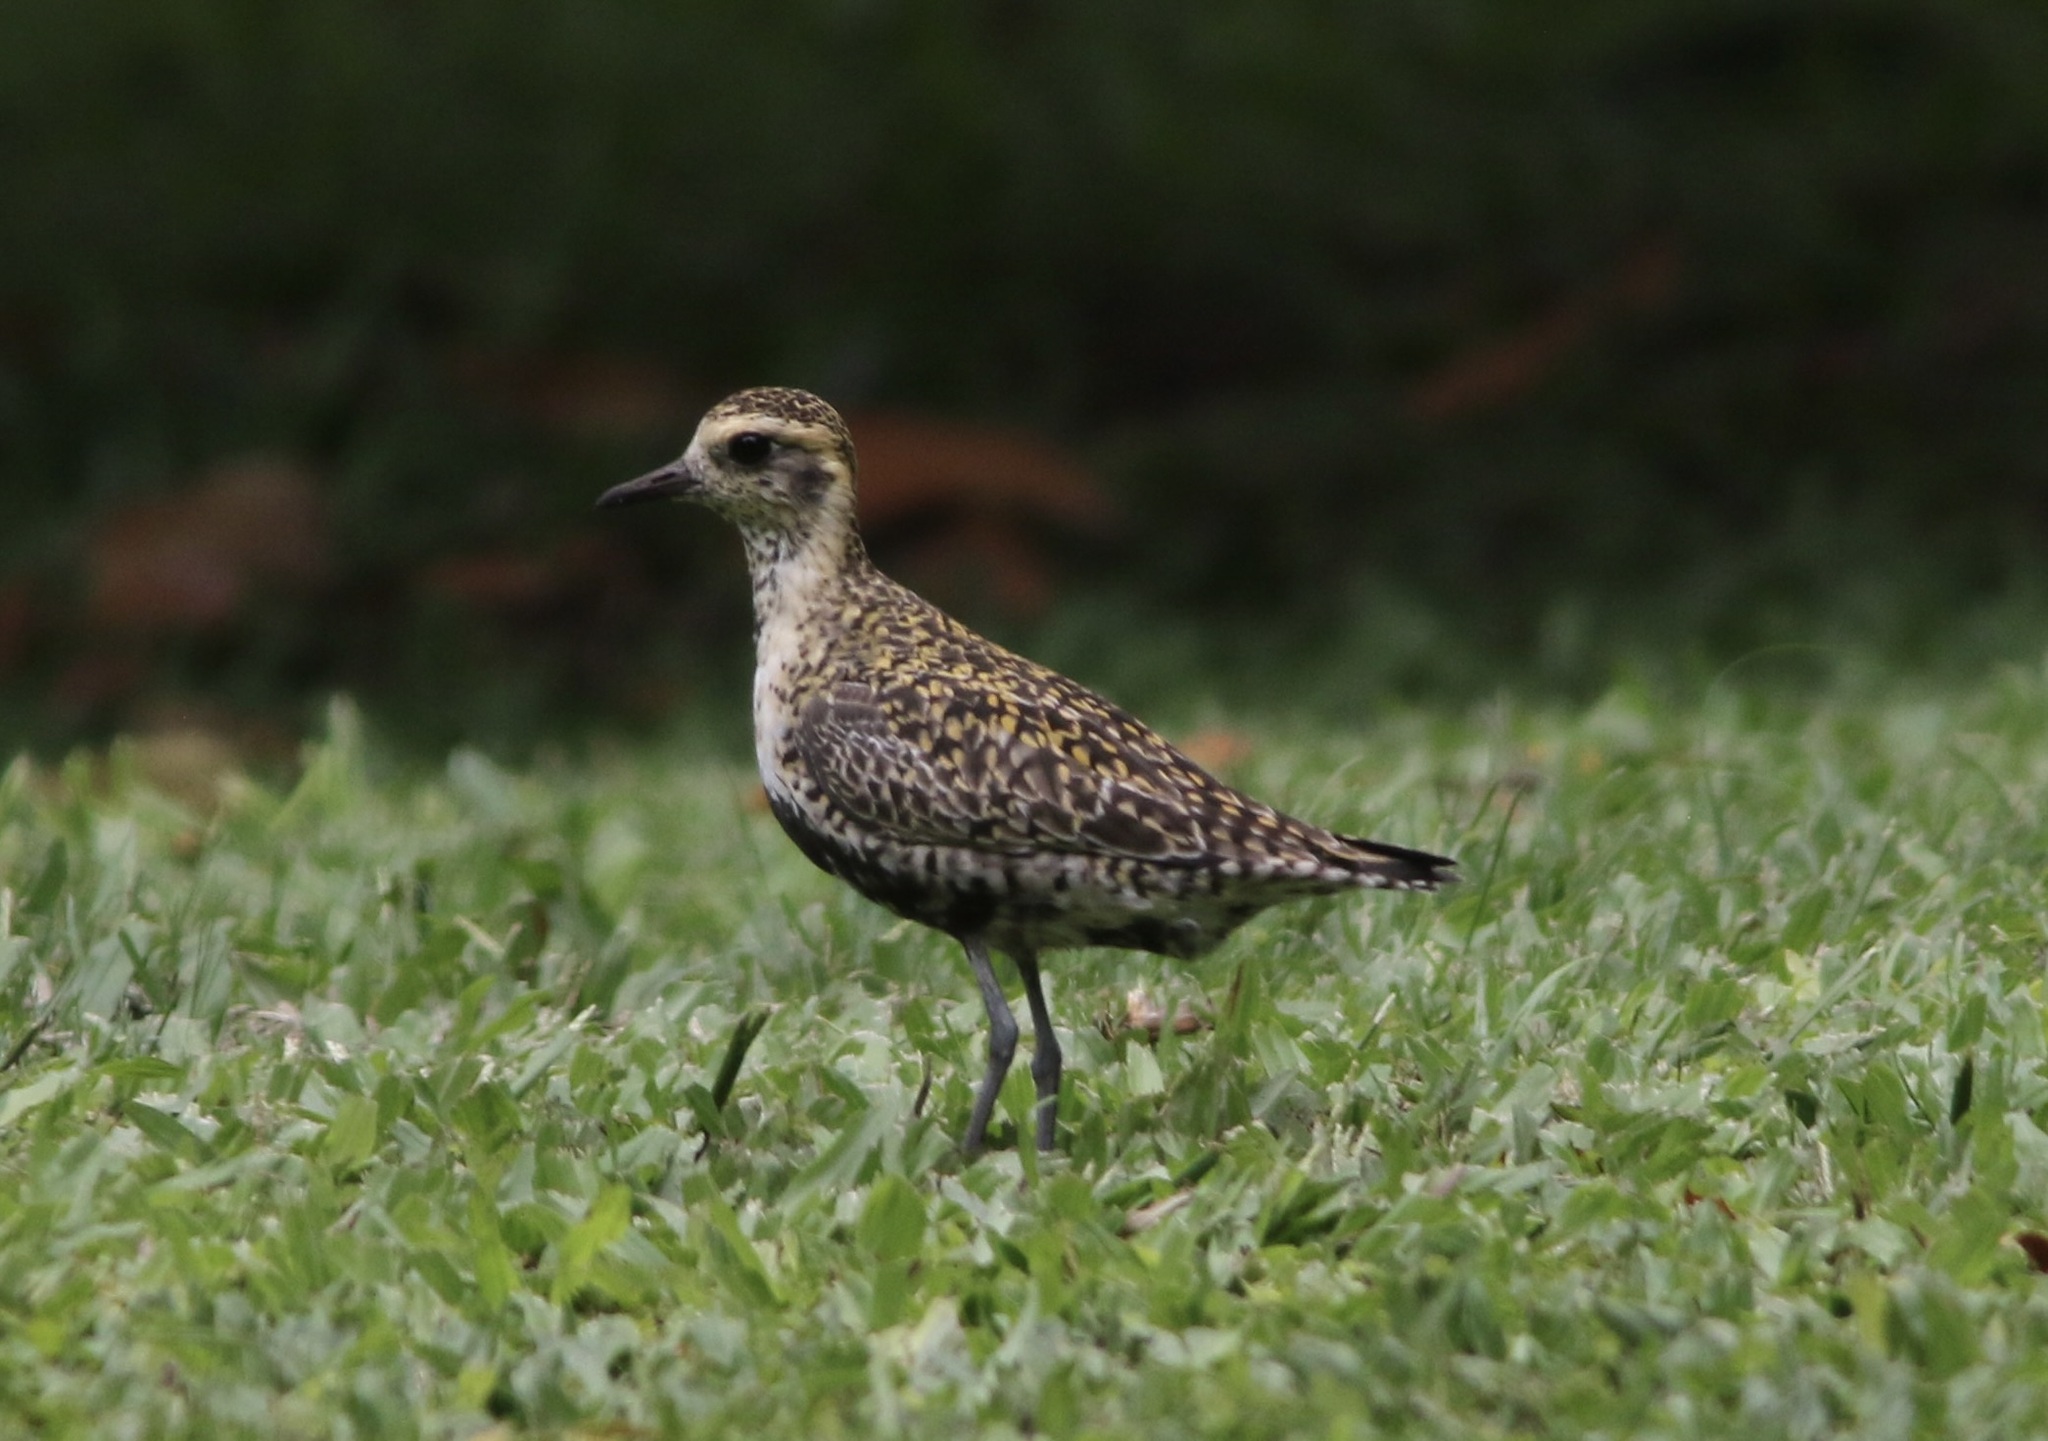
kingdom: Animalia
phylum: Chordata
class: Aves
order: Charadriiformes
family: Charadriidae
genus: Pluvialis
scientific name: Pluvialis fulva
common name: Pacific golden plover
